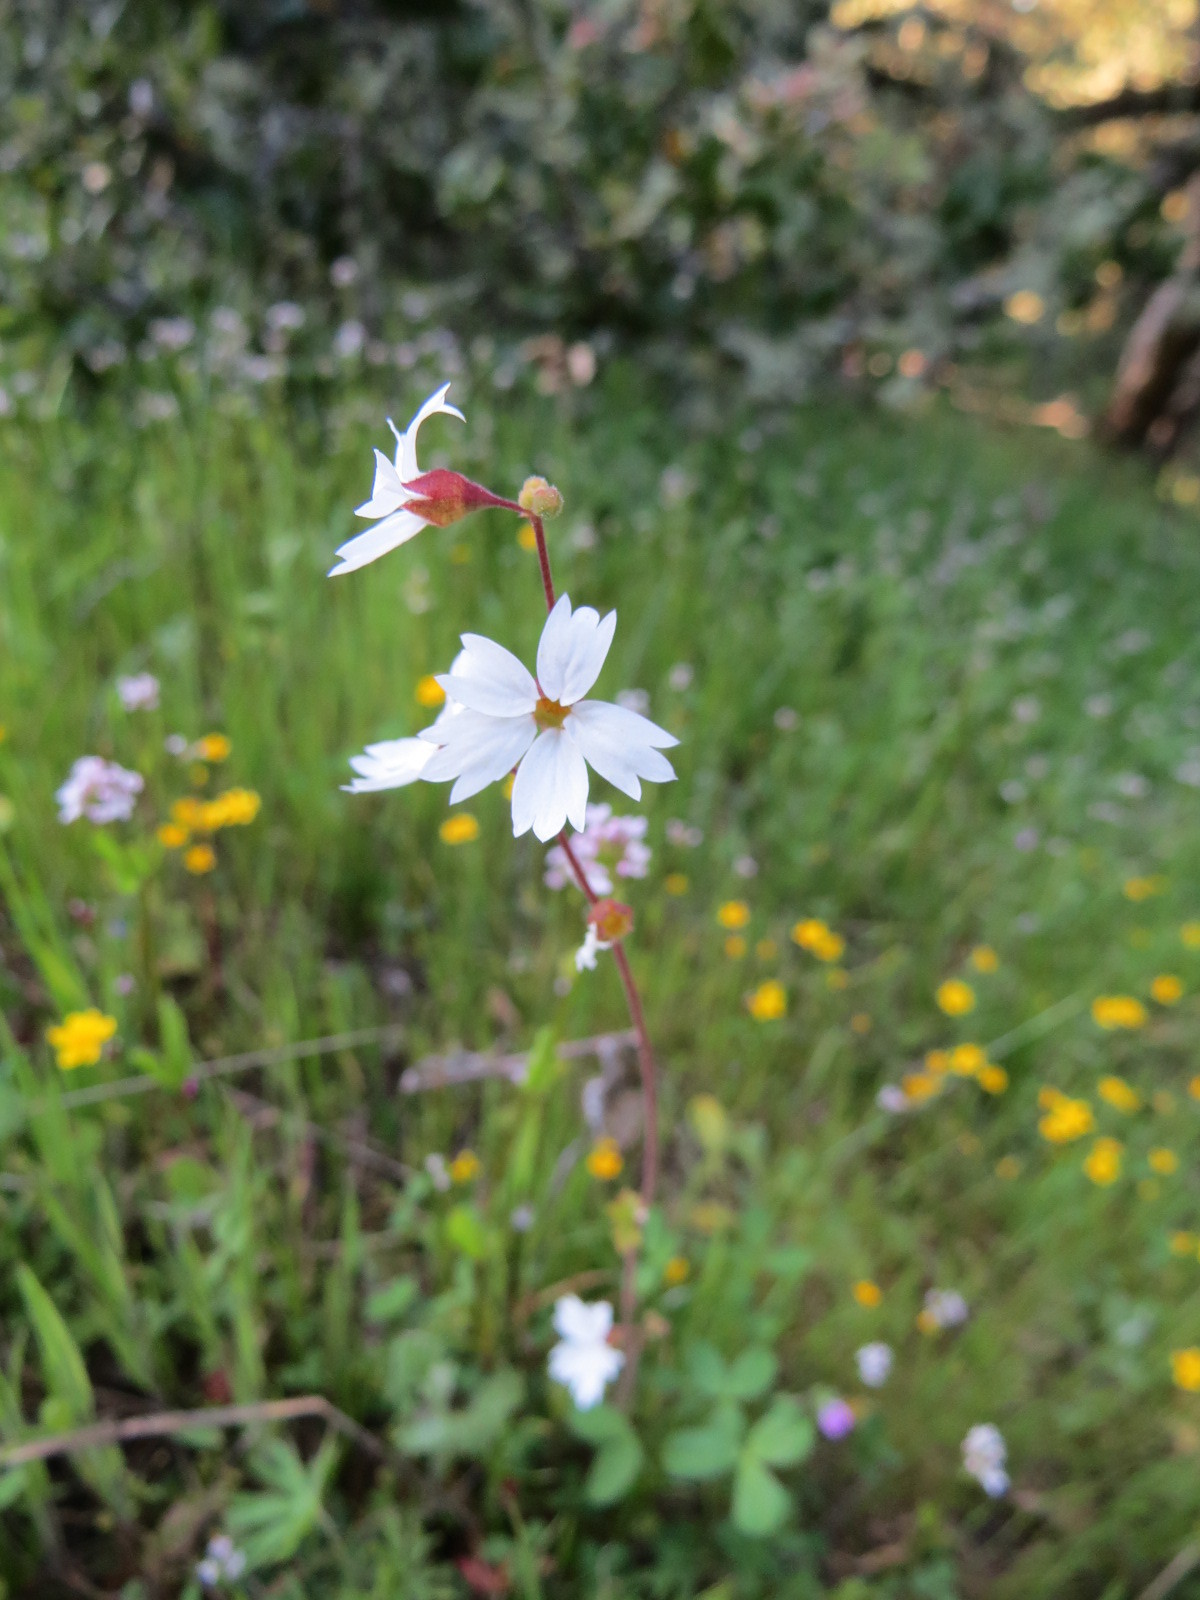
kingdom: Plantae
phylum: Tracheophyta
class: Magnoliopsida
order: Saxifragales
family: Saxifragaceae
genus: Lithophragma
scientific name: Lithophragma affine
